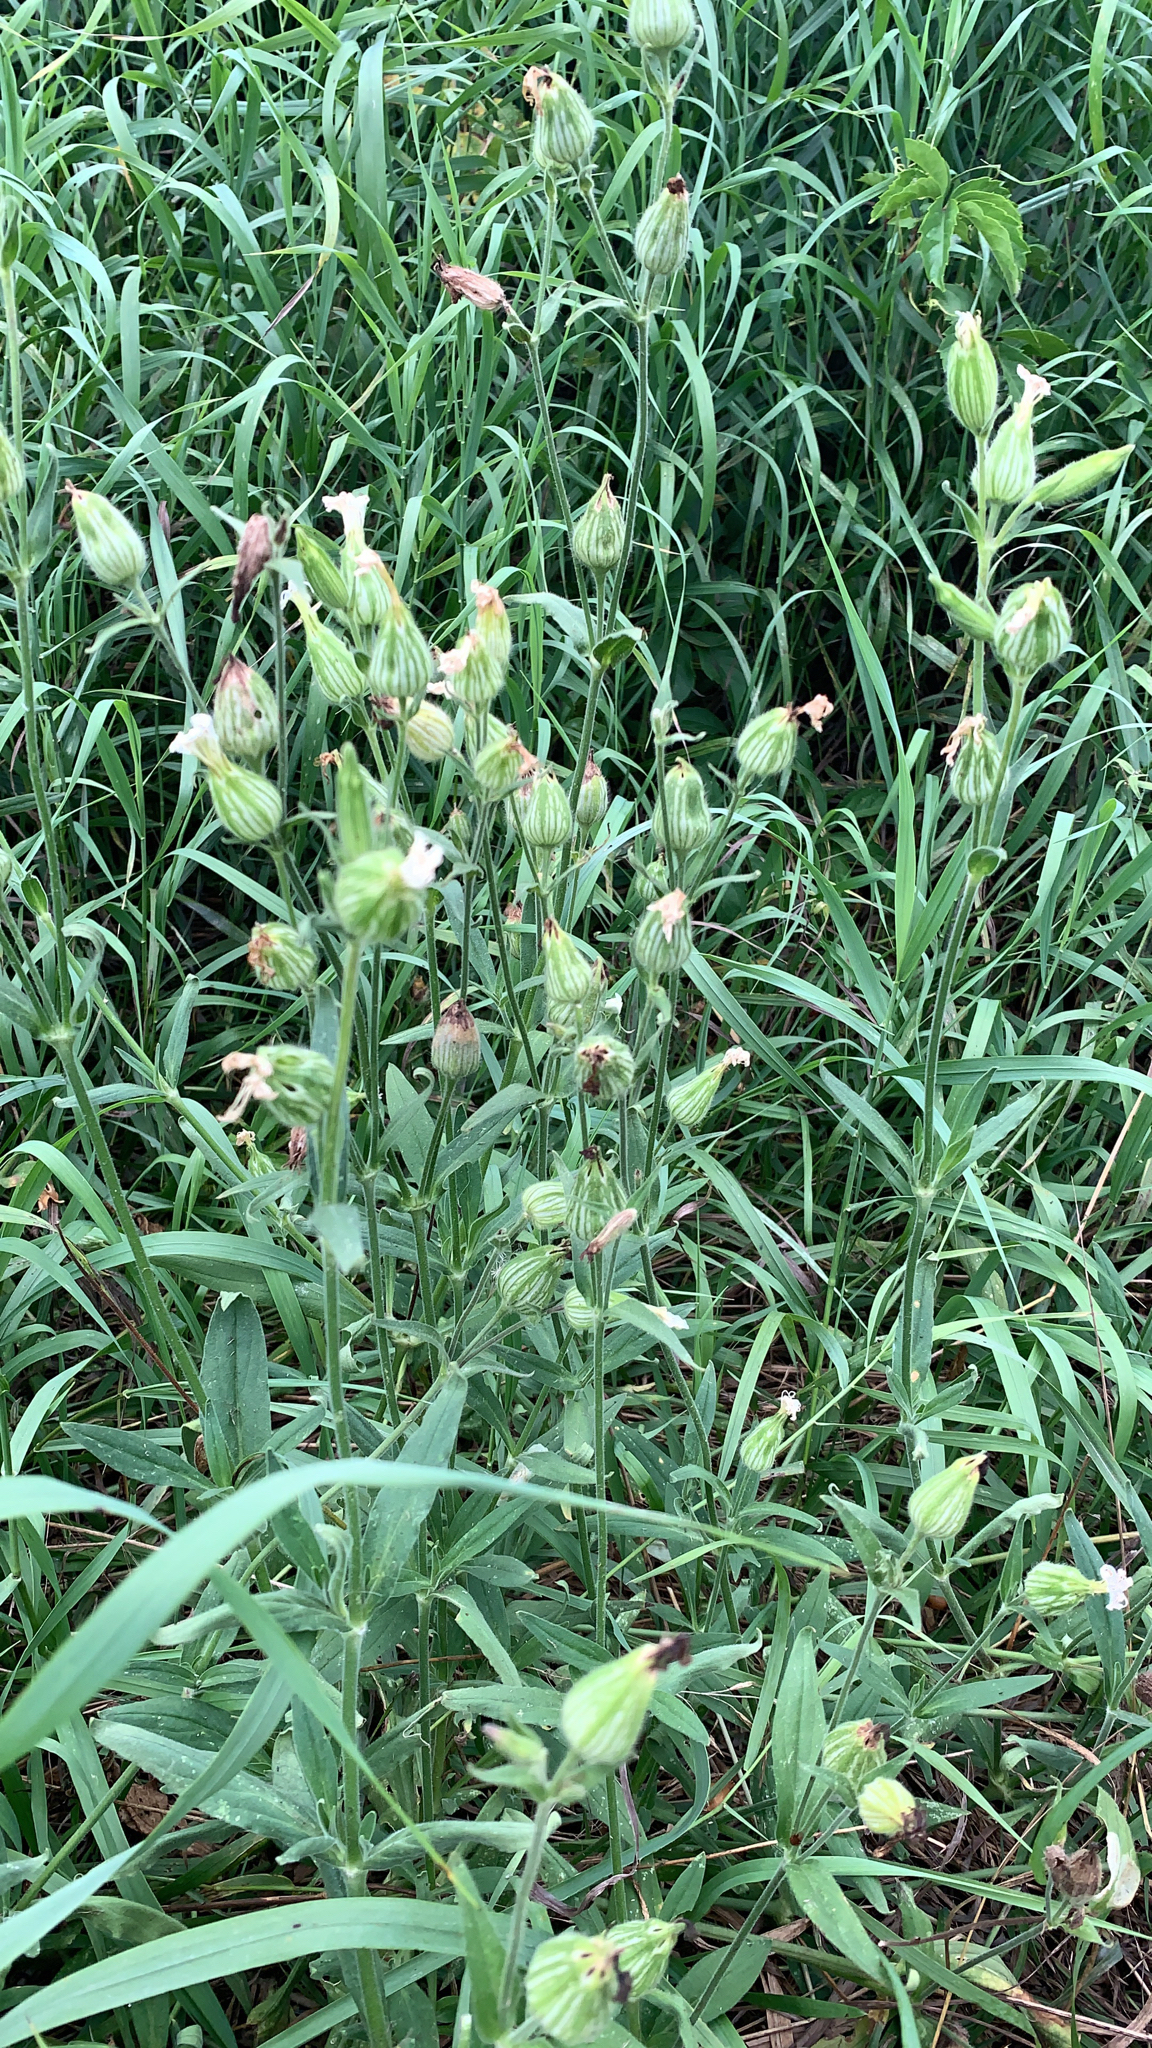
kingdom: Plantae
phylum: Tracheophyta
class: Magnoliopsida
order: Caryophyllales
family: Caryophyllaceae
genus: Silene
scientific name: Silene latifolia
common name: White campion
